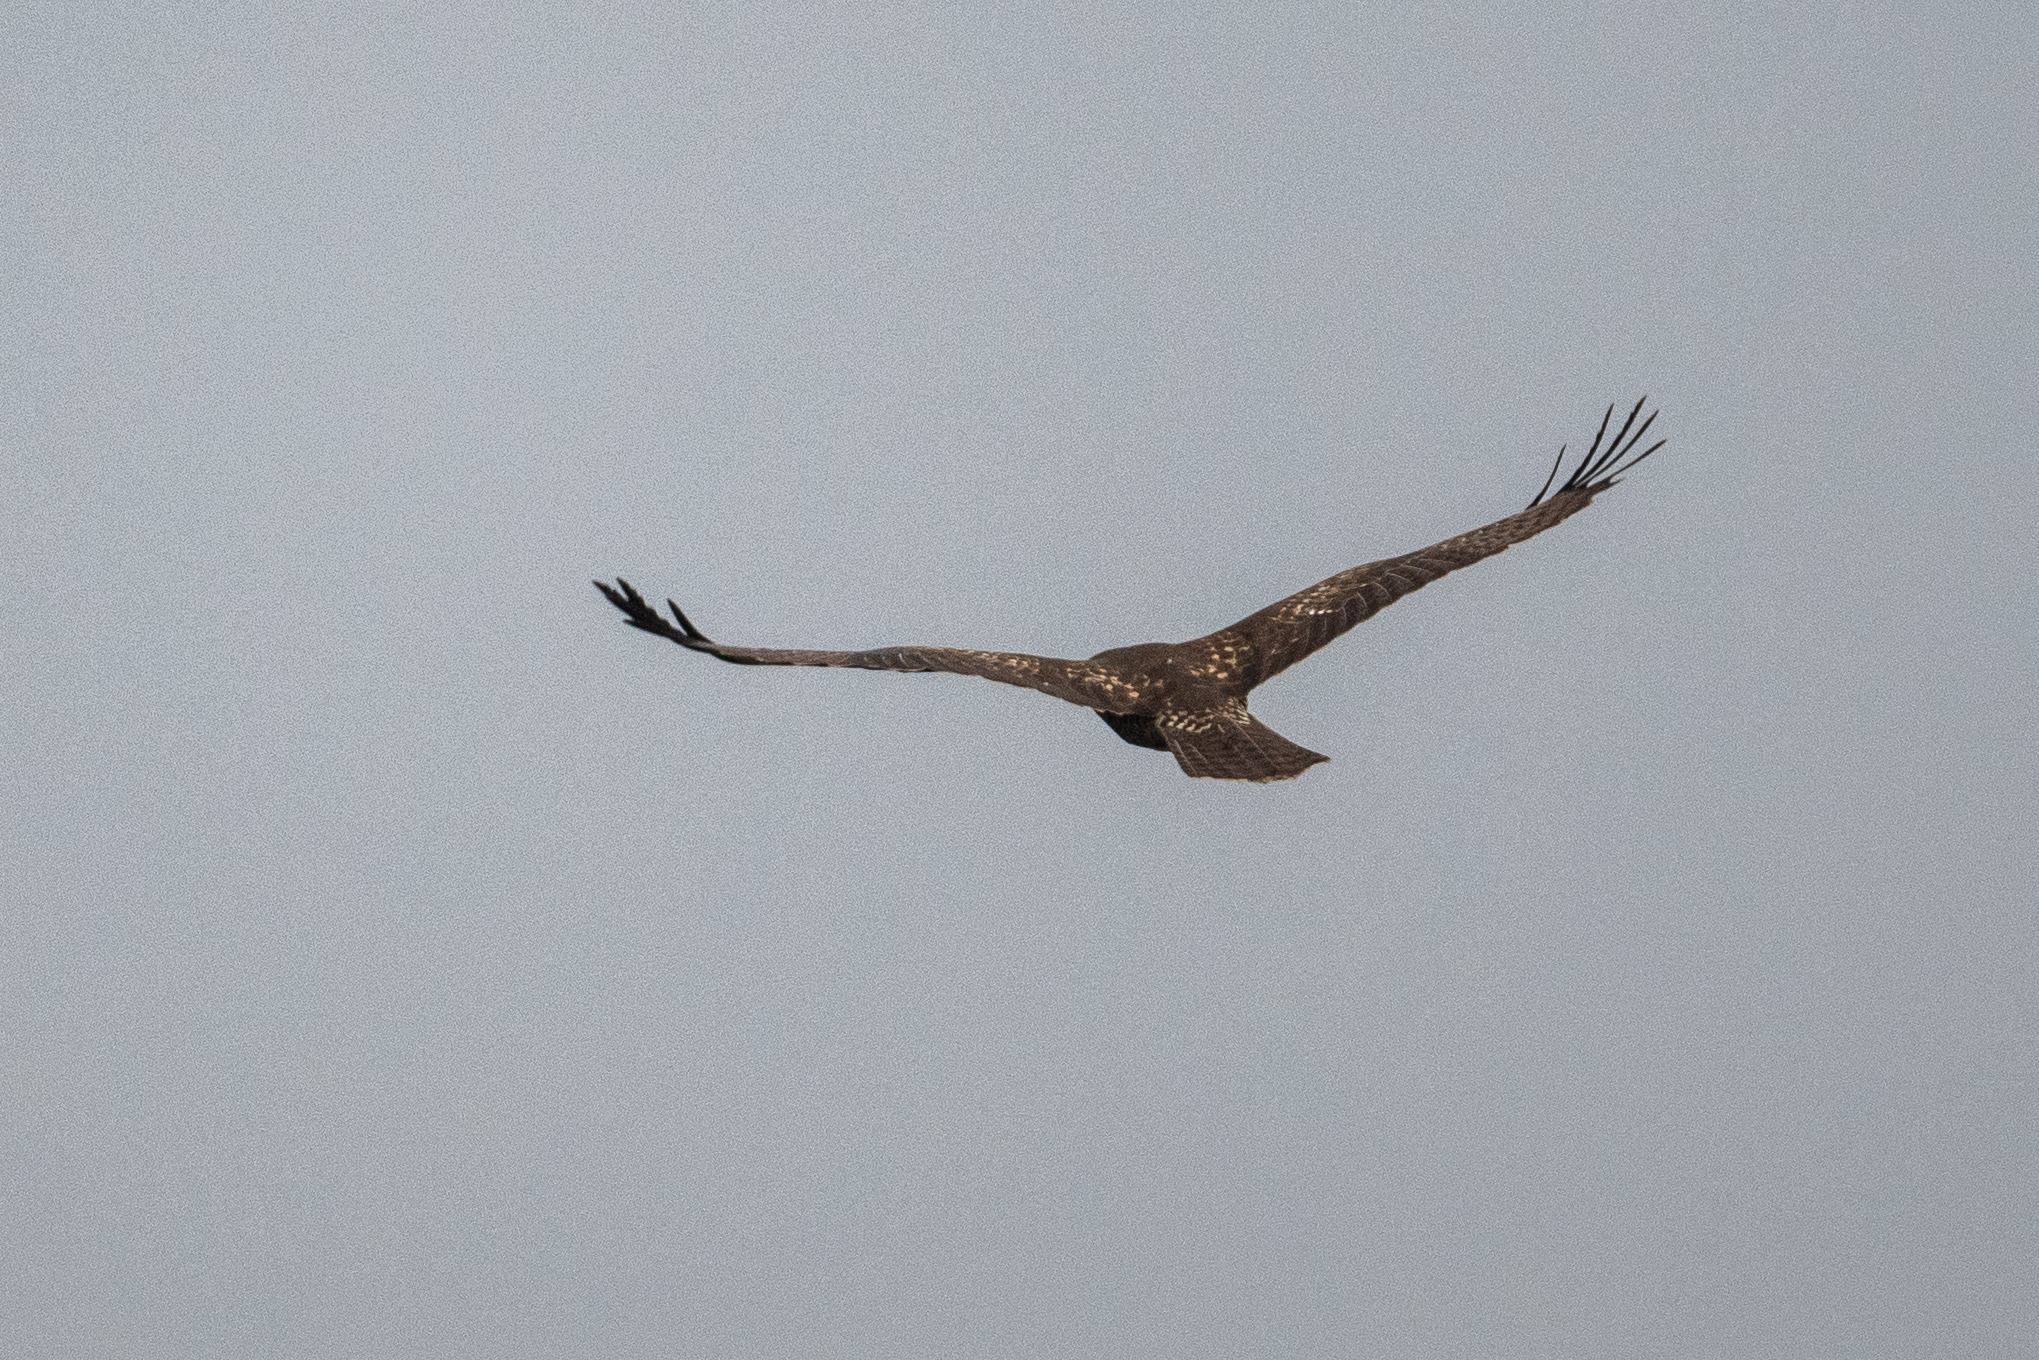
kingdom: Animalia
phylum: Chordata
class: Aves
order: Accipitriformes
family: Accipitridae
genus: Buteo
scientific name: Buteo jamaicensis
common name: Red-tailed hawk
